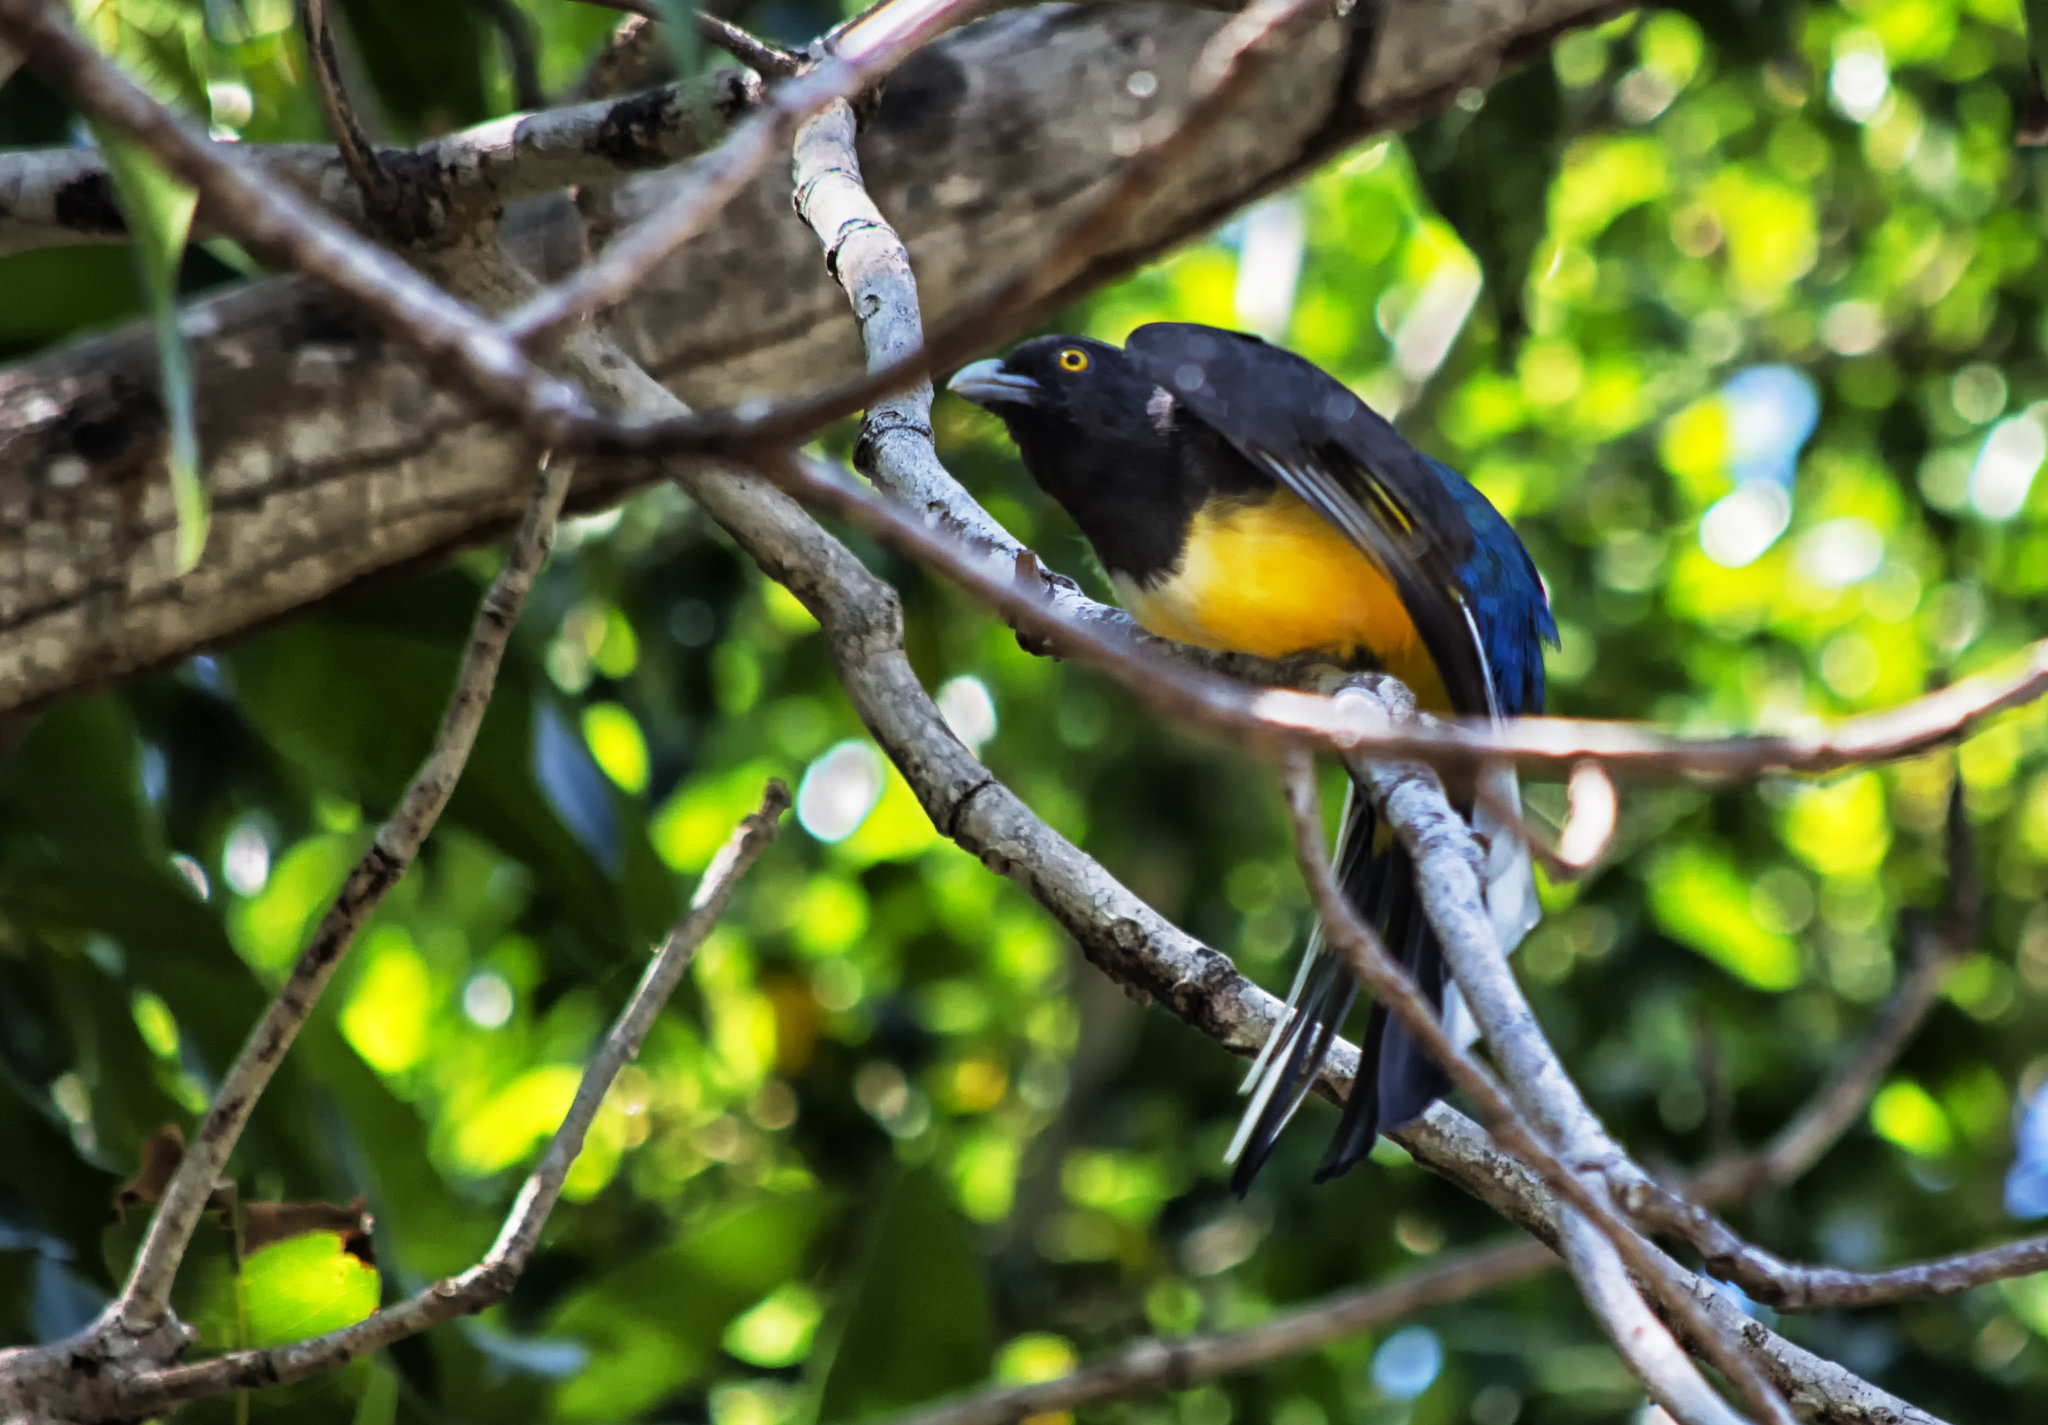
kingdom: Animalia
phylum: Chordata
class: Aves
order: Trogoniformes
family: Trogonidae
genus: Trogon
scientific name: Trogon citreolus
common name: Citreoline trogon
